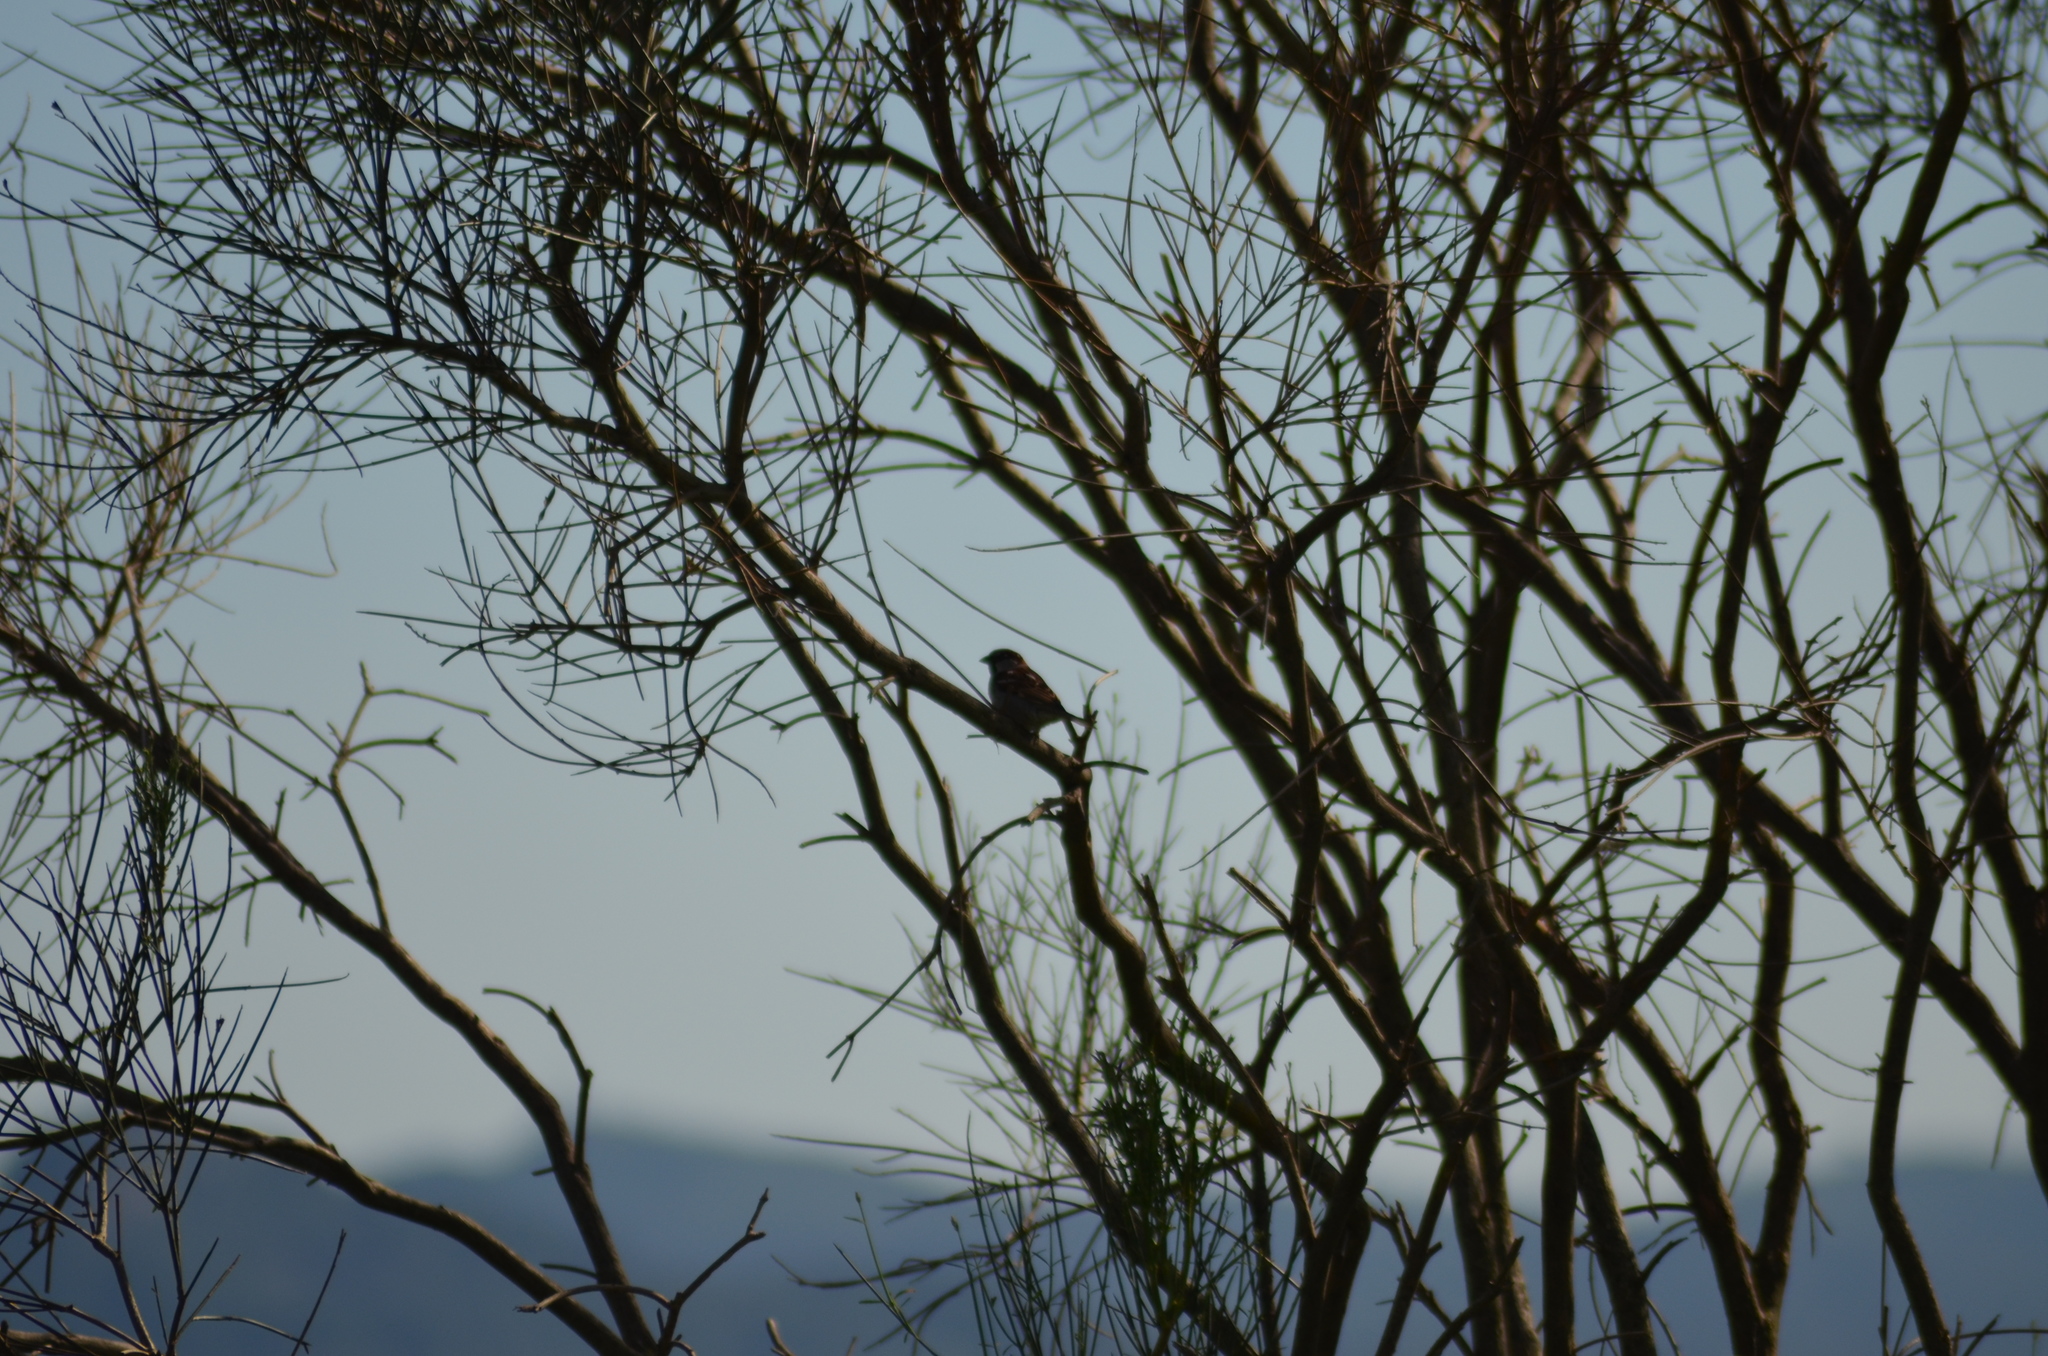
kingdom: Animalia
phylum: Chordata
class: Aves
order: Passeriformes
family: Passeridae
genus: Passer
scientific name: Passer domesticus
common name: House sparrow
